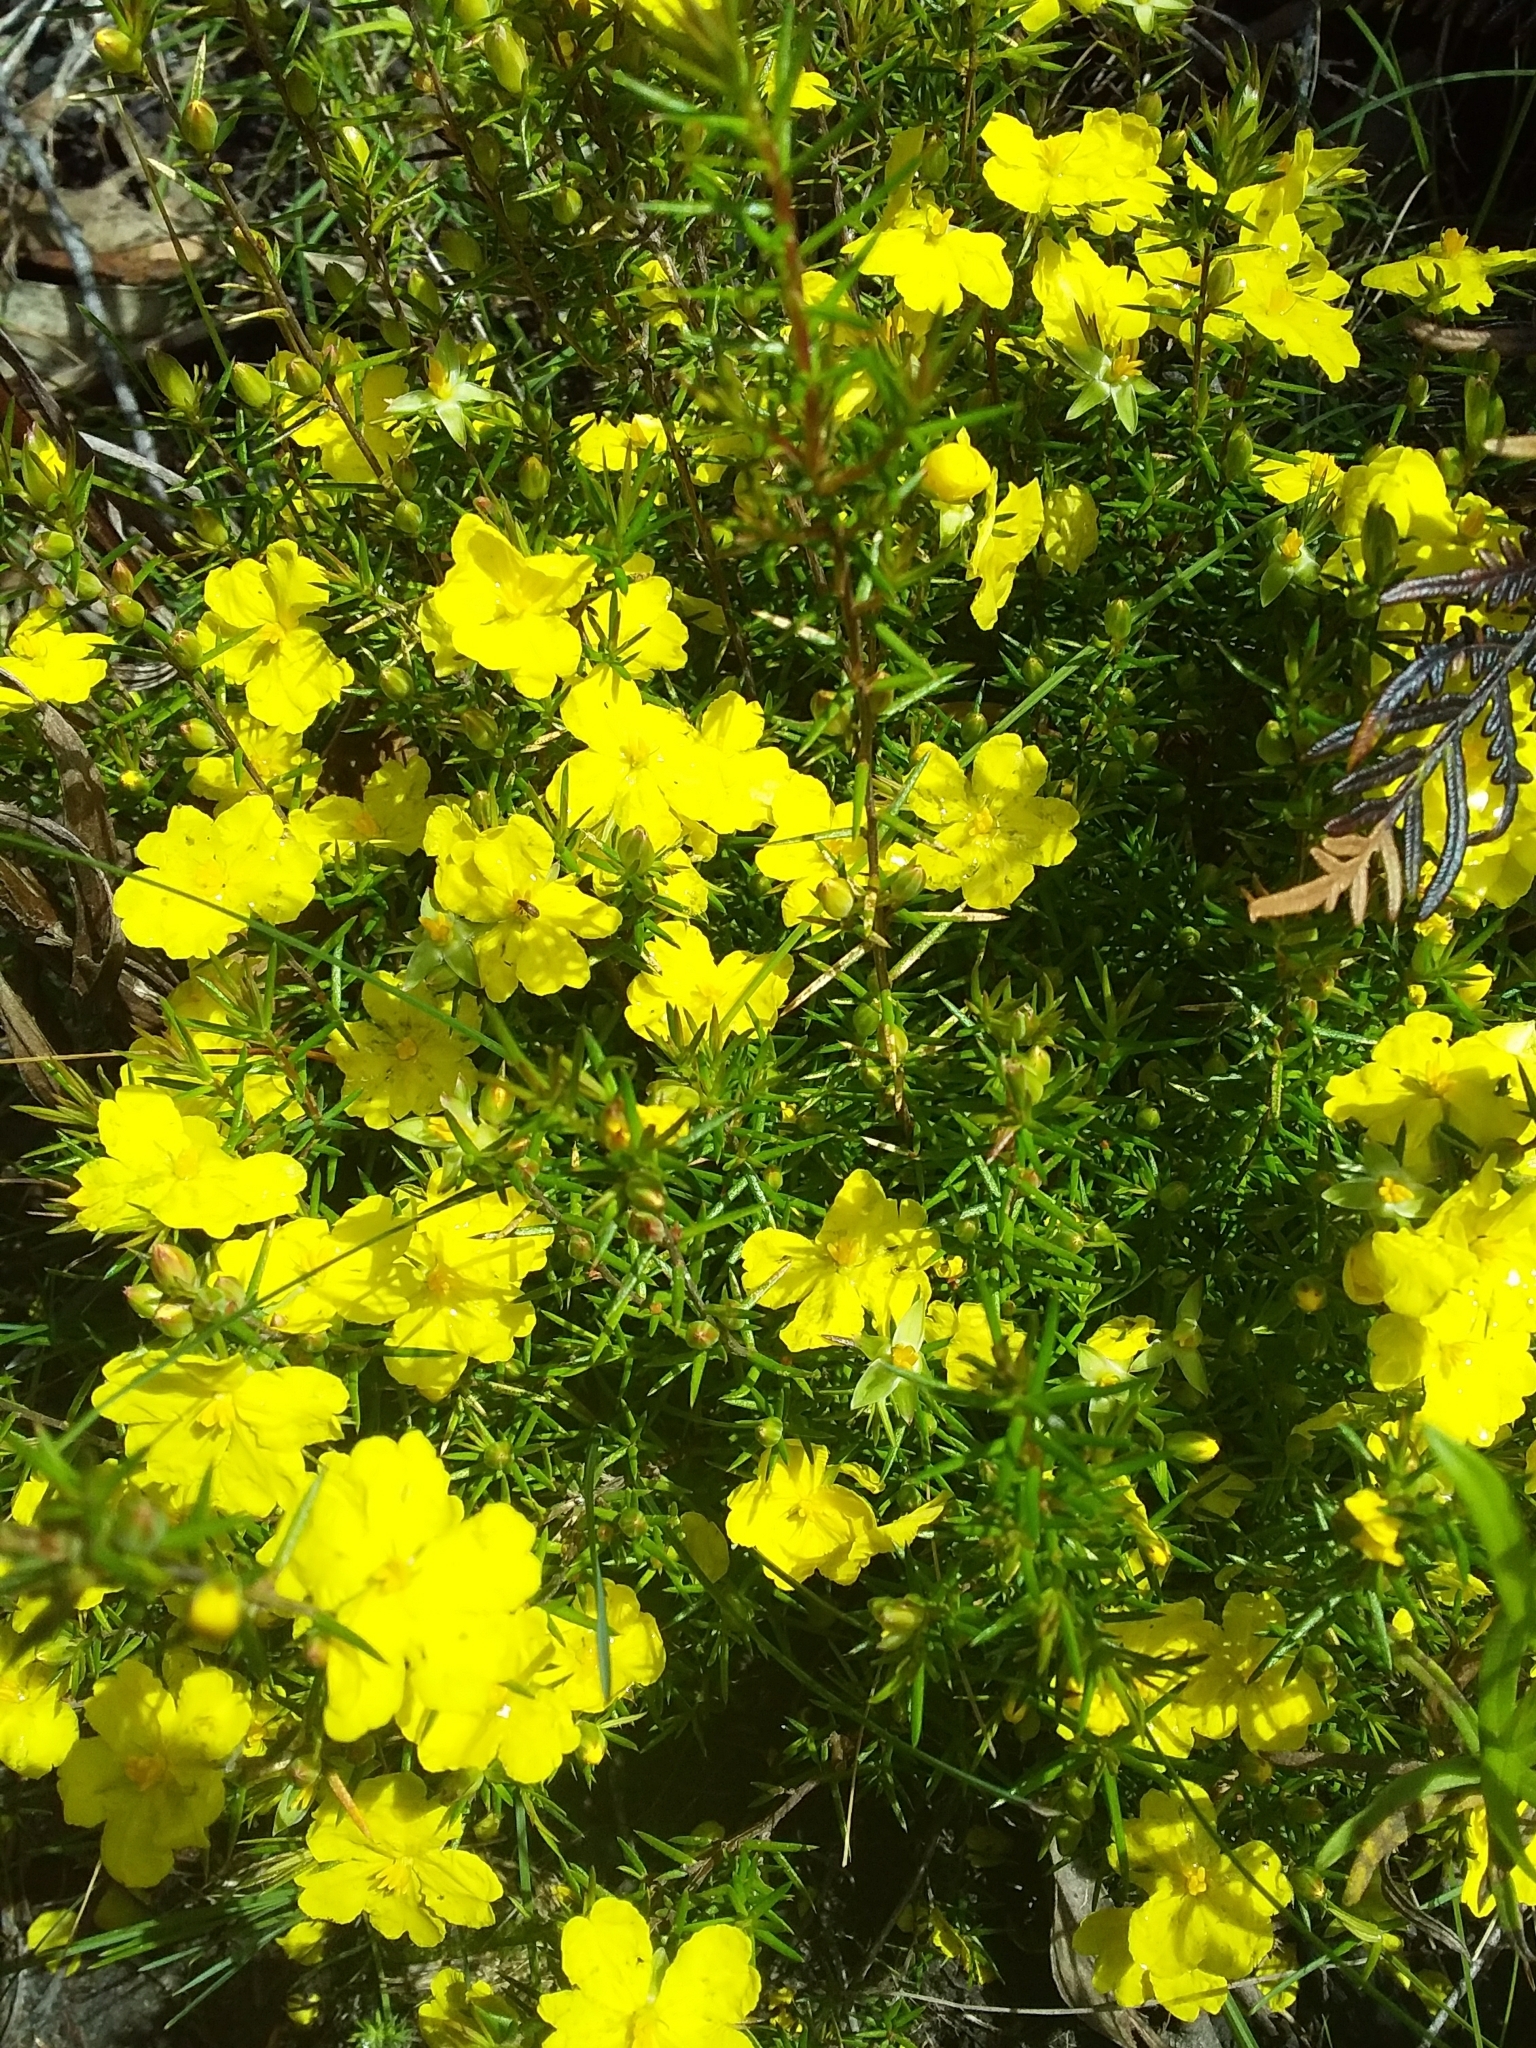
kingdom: Plantae
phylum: Tracheophyta
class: Magnoliopsida
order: Dilleniales
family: Dilleniaceae
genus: Hibbertia
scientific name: Hibbertia exutiacies
